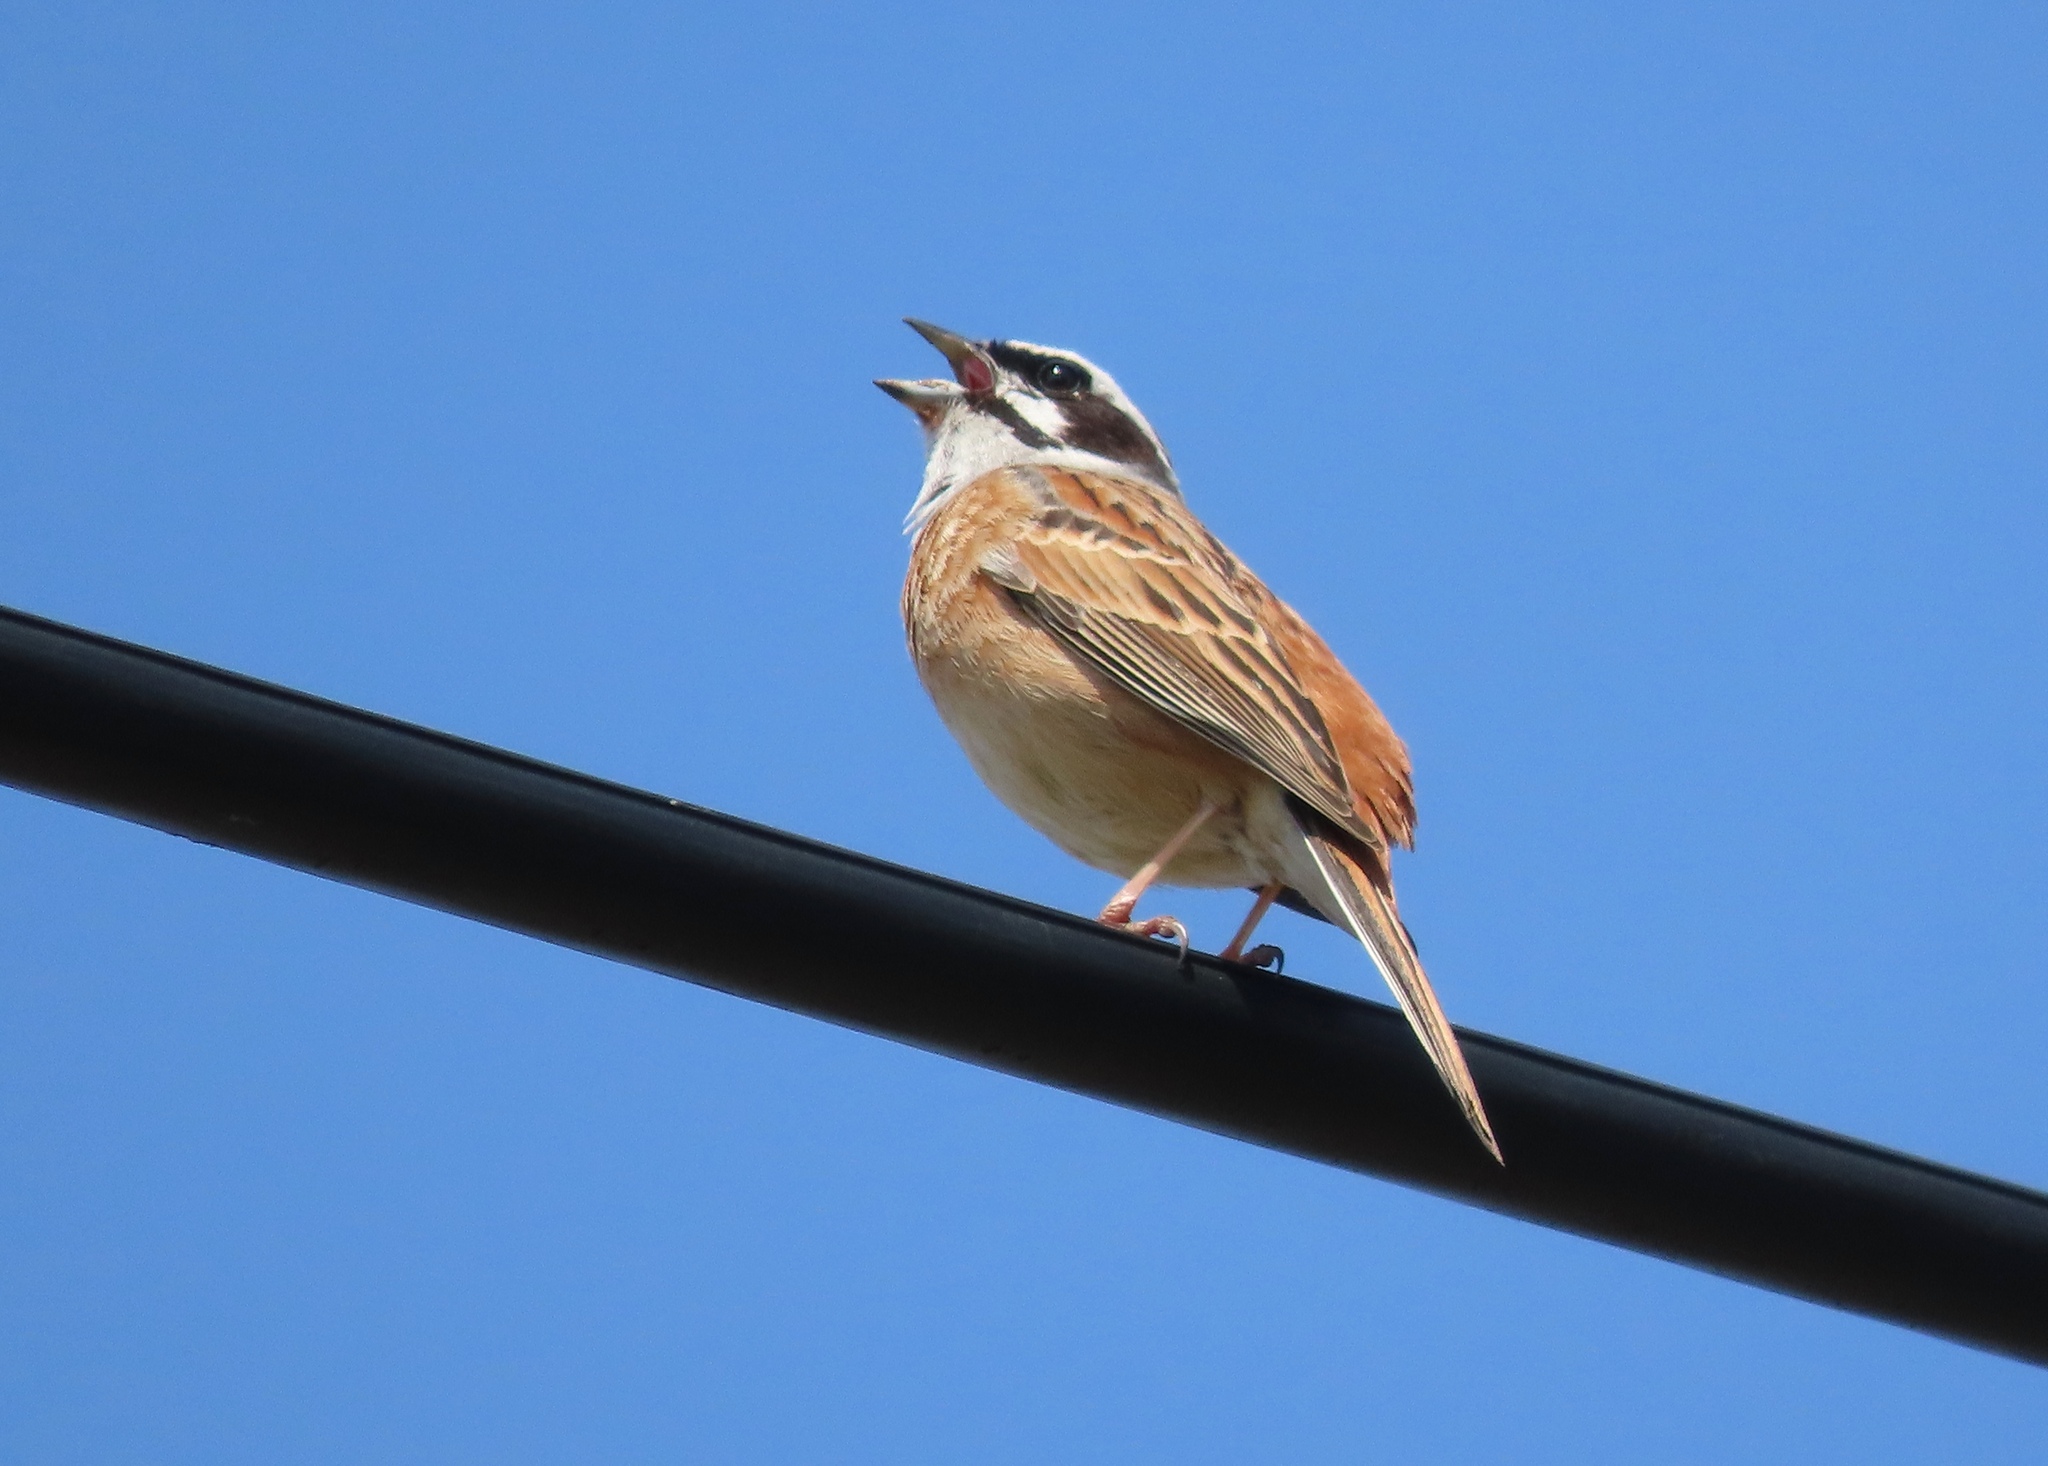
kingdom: Animalia
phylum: Chordata
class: Aves
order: Passeriformes
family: Emberizidae
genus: Emberiza
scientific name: Emberiza cioides
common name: Meadow bunting
